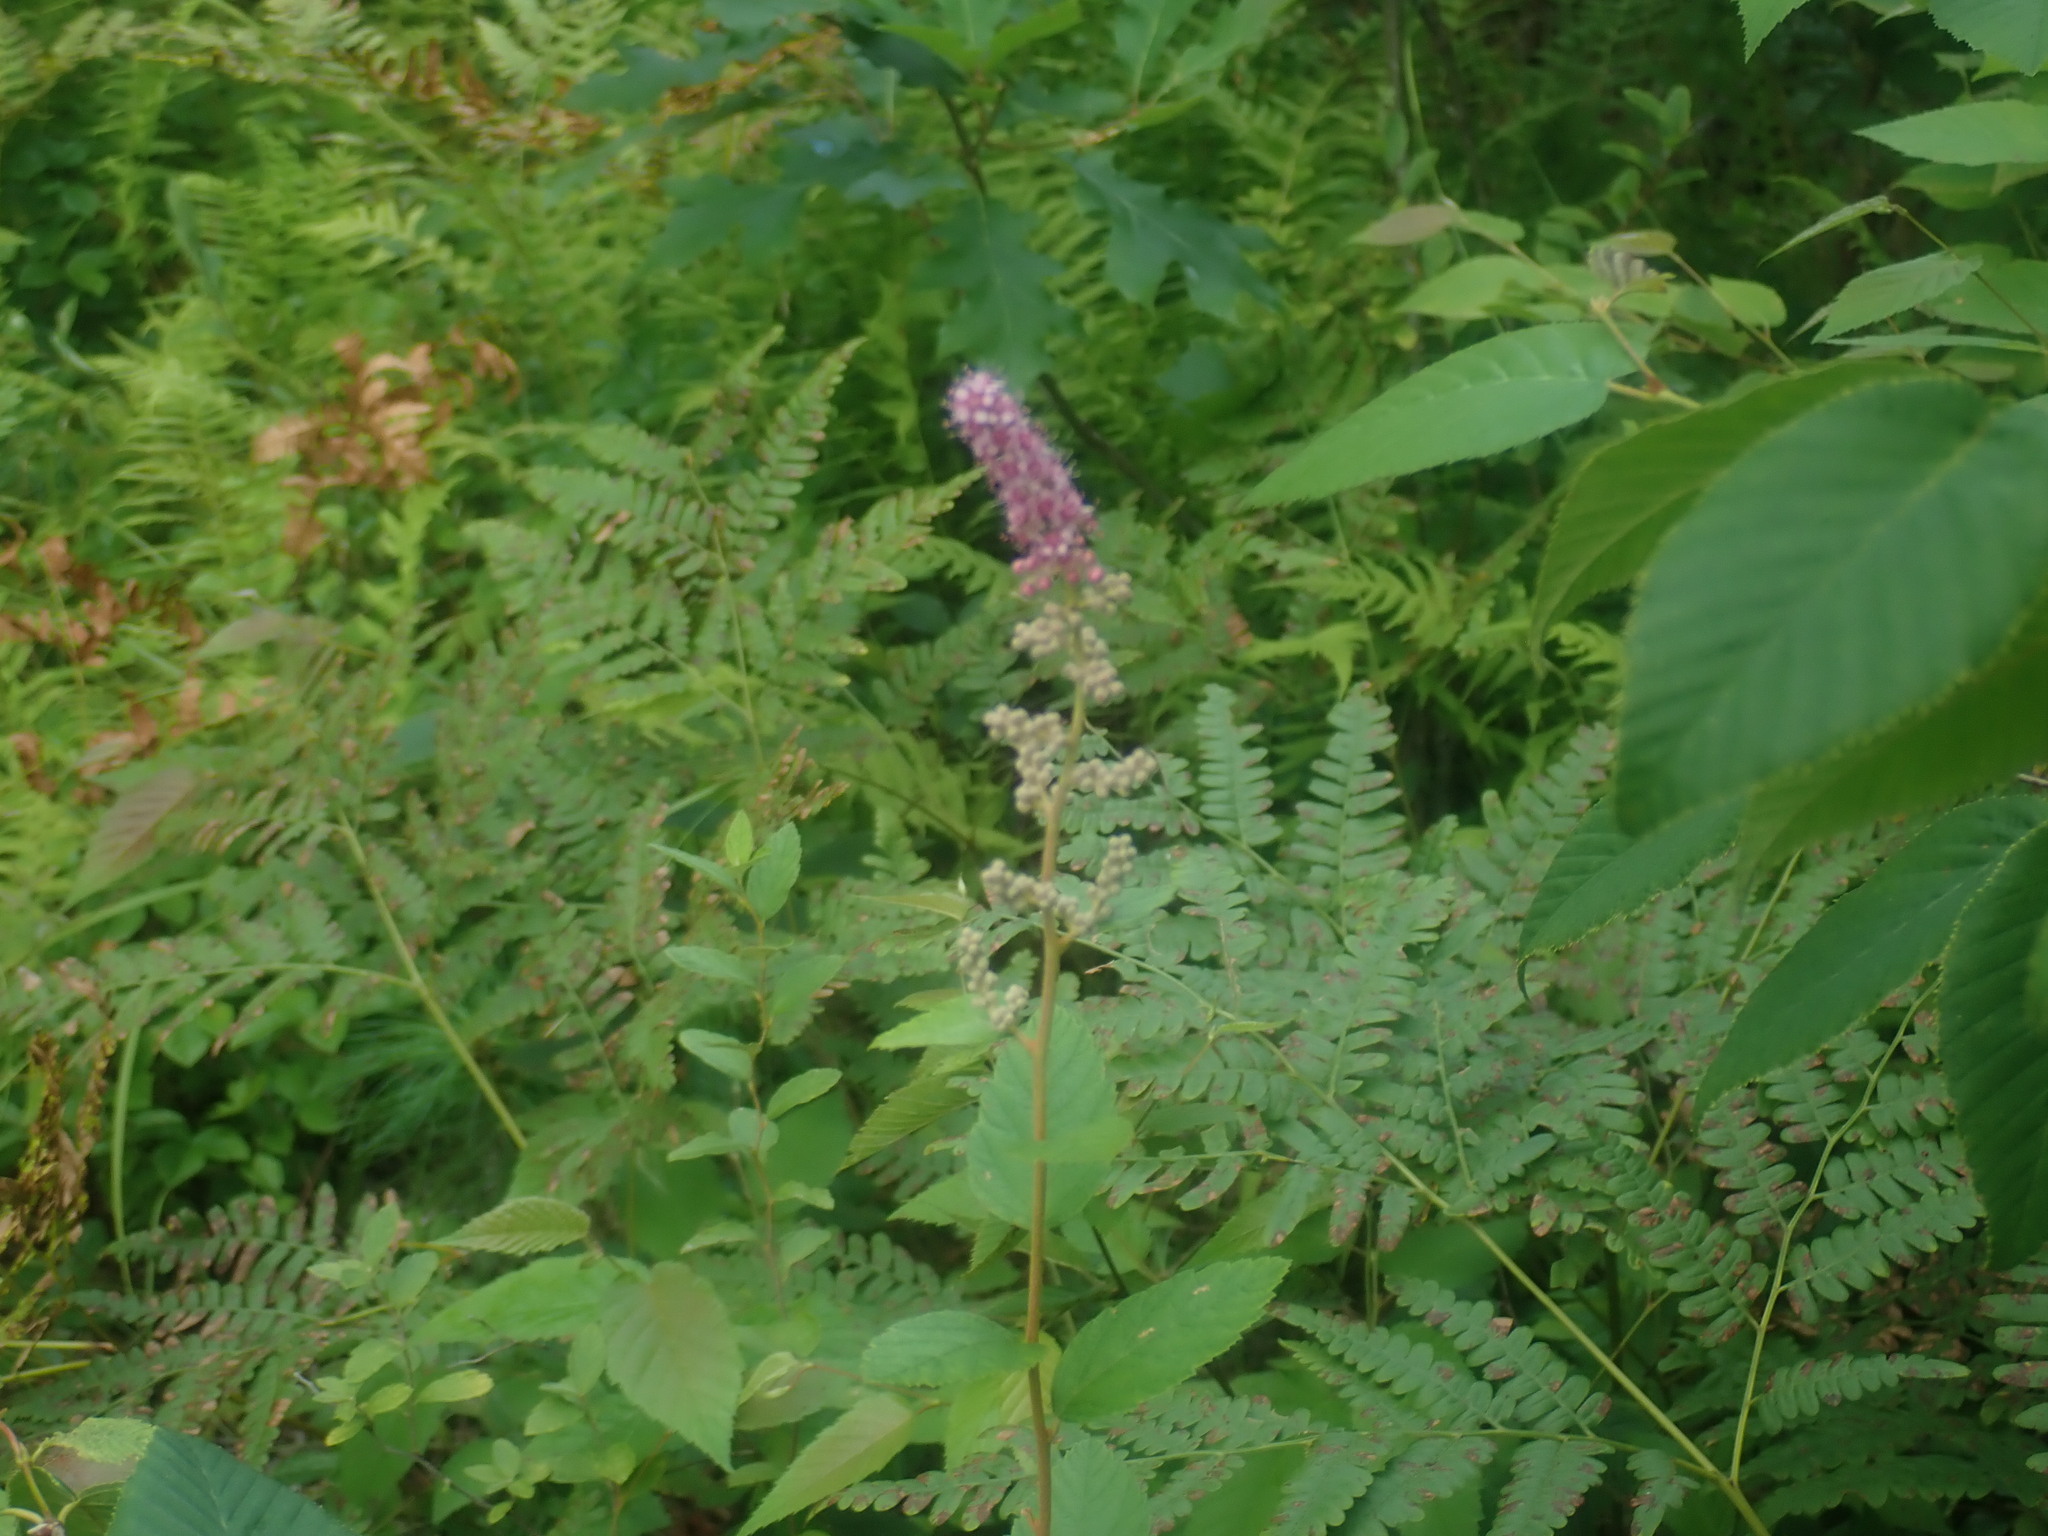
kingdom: Plantae
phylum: Tracheophyta
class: Magnoliopsida
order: Rosales
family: Rosaceae
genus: Spiraea
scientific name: Spiraea tomentosa
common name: Hardhack
